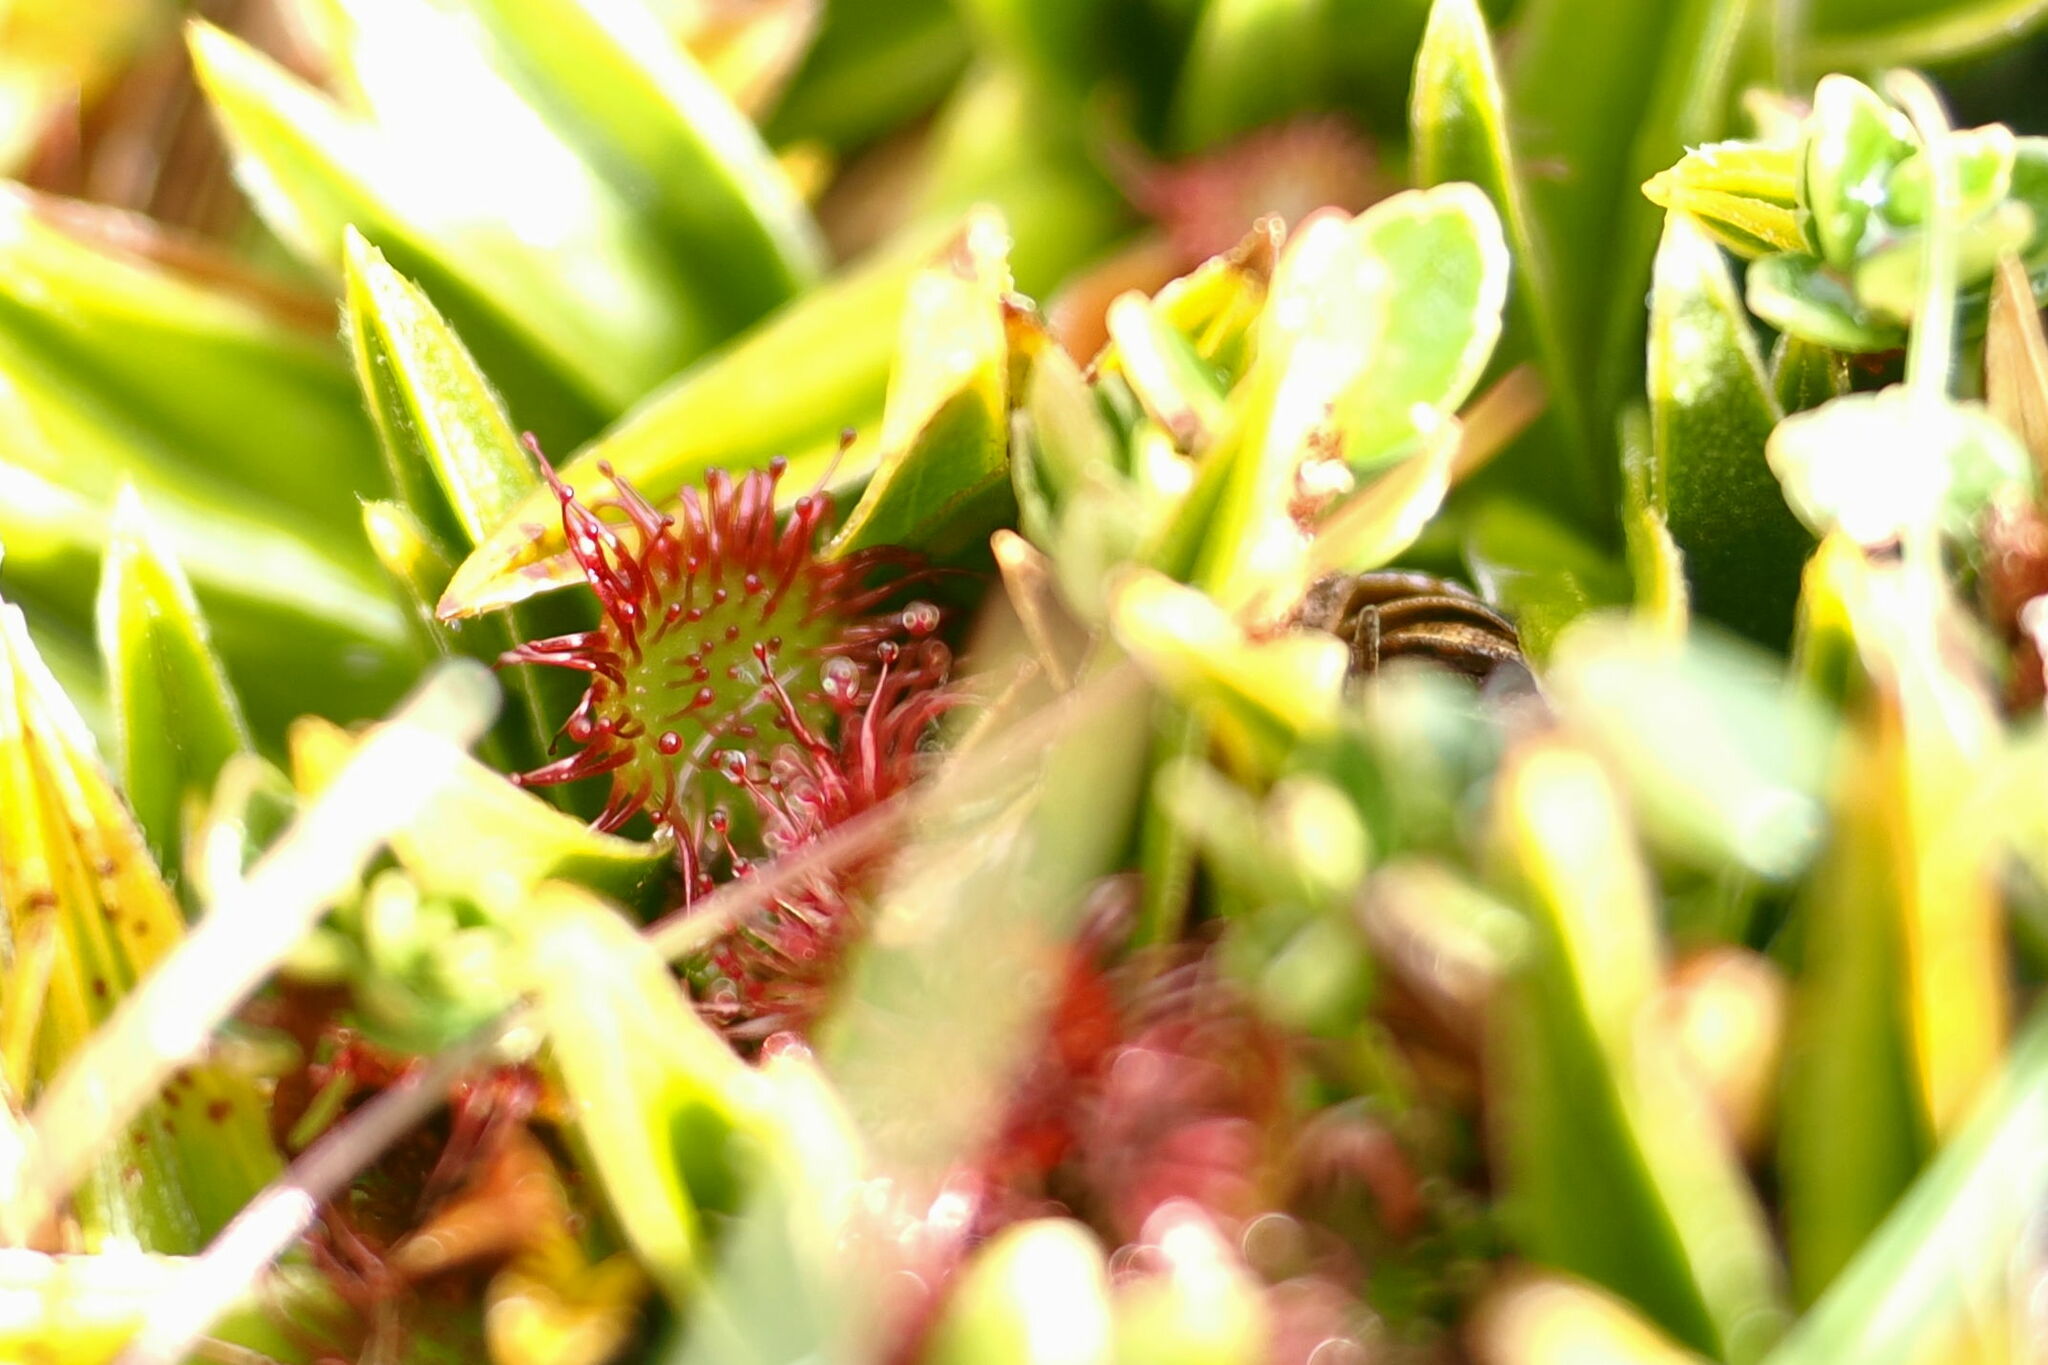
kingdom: Plantae
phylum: Tracheophyta
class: Magnoliopsida
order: Caryophyllales
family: Droseraceae
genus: Drosera
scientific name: Drosera uniflora
